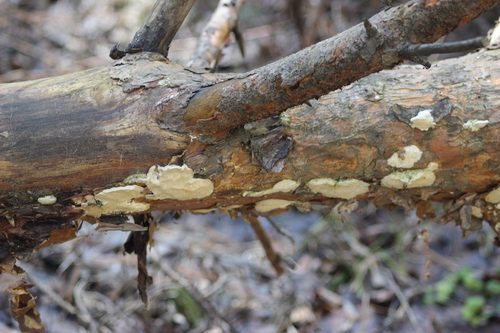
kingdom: Fungi
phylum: Basidiomycota
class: Agaricomycetes
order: Polyporales
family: Polyporaceae
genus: Diplomitoporus
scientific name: Diplomitoporus flavescens
